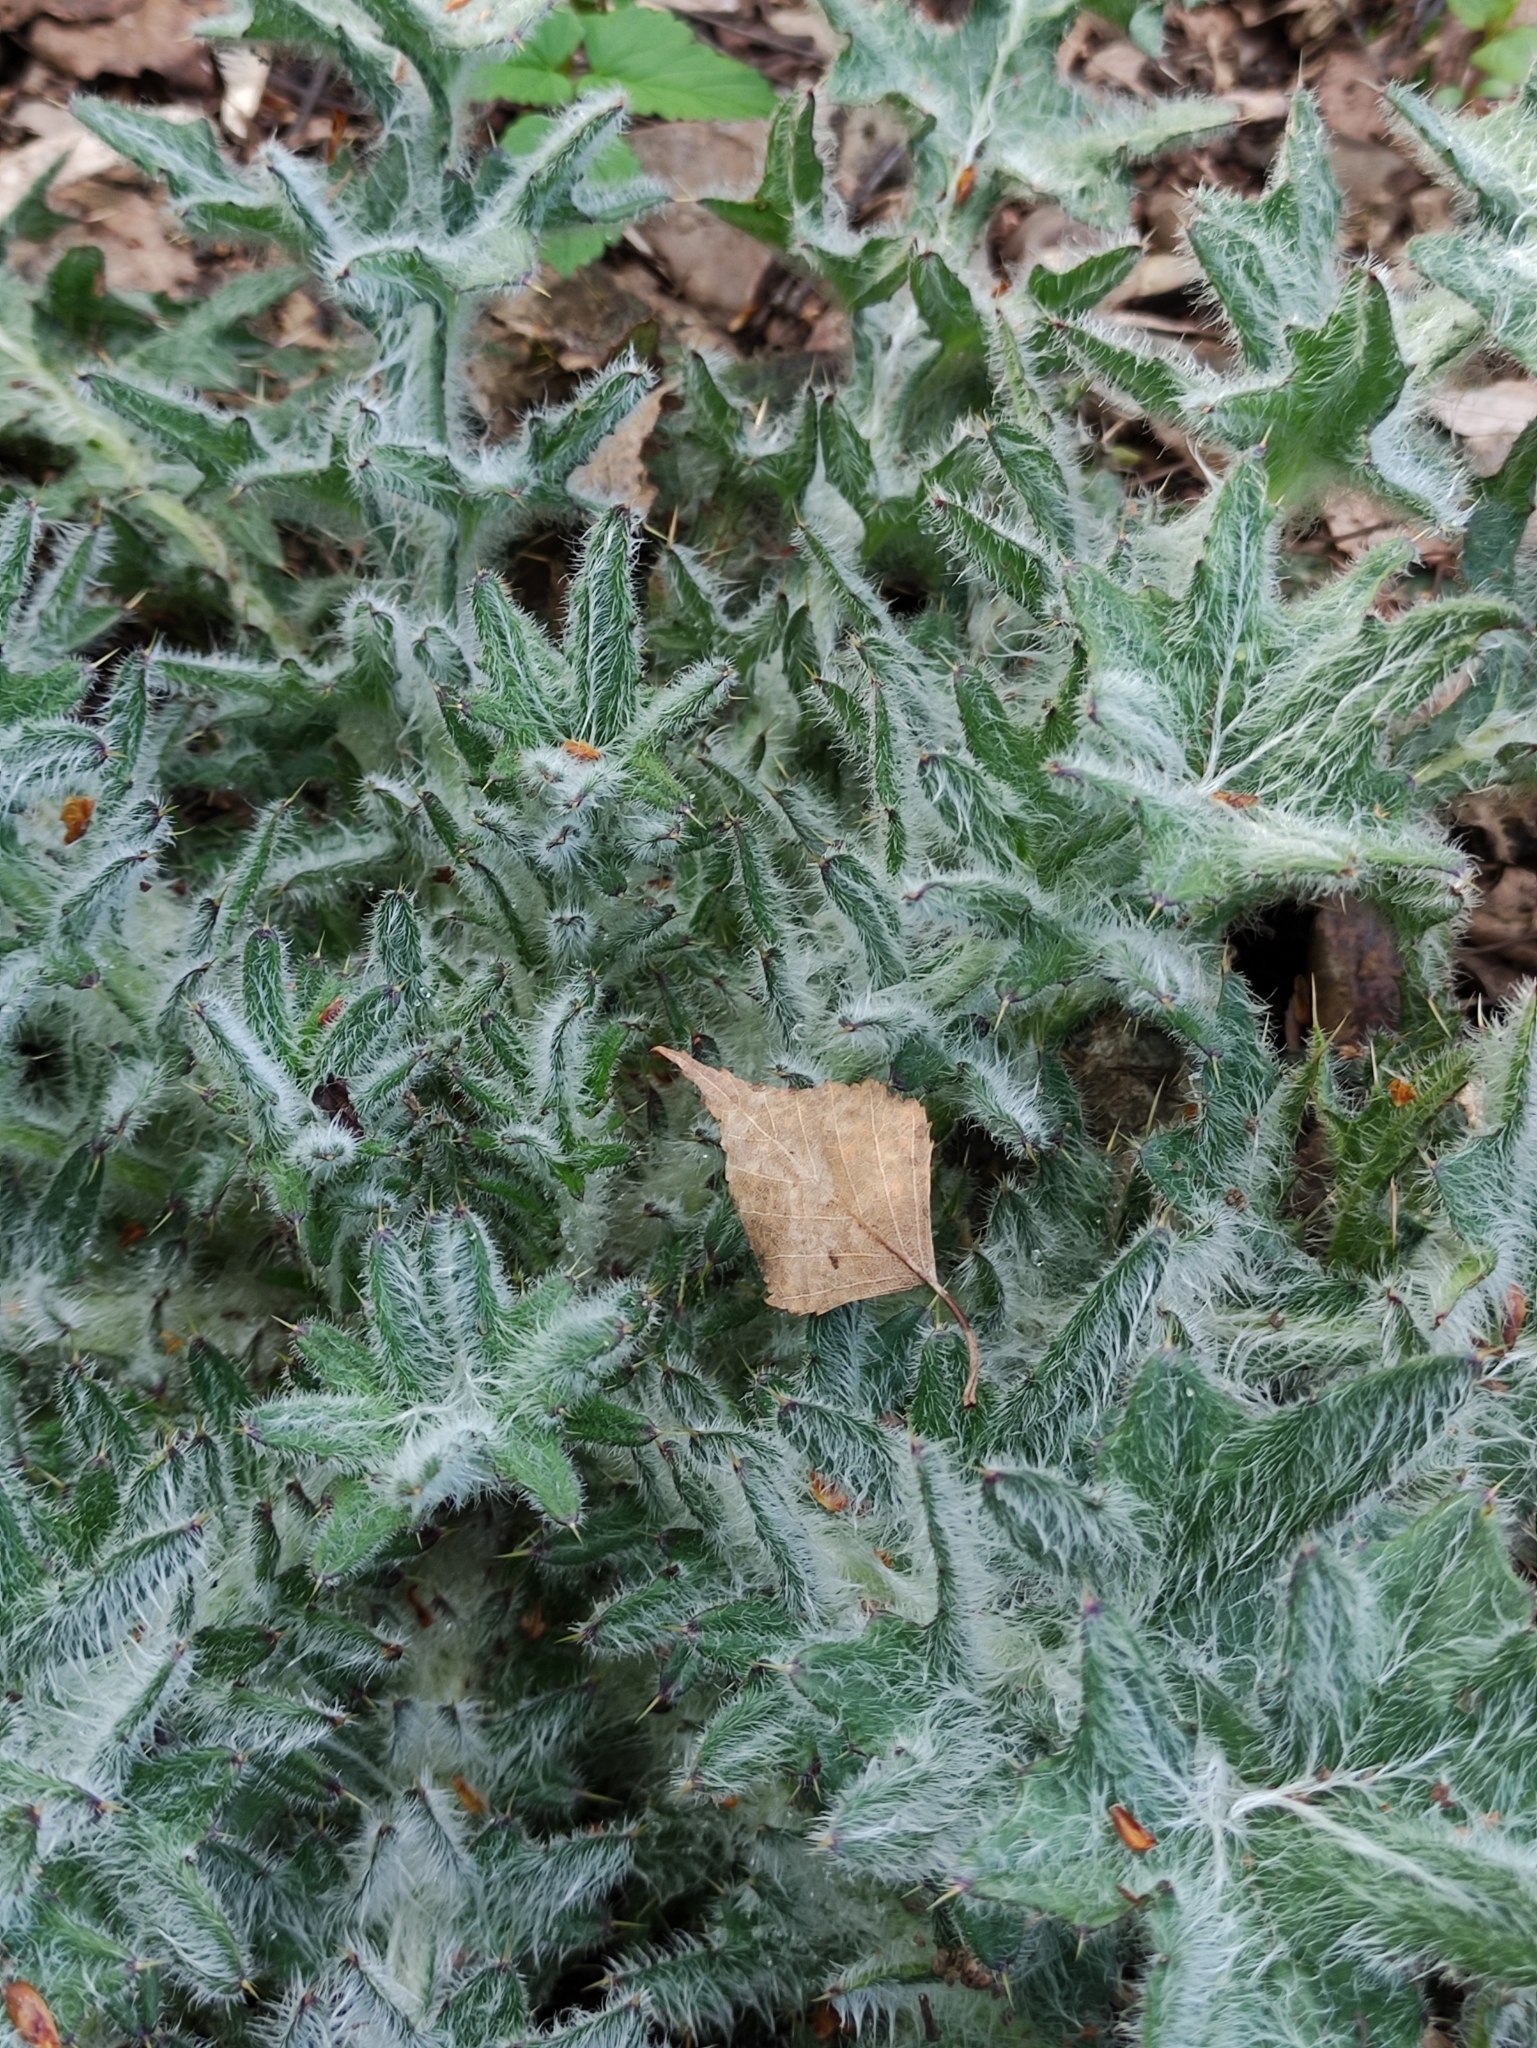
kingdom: Plantae
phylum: Tracheophyta
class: Magnoliopsida
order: Asterales
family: Asteraceae
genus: Cirsium
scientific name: Cirsium vulgare
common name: Bull thistle
